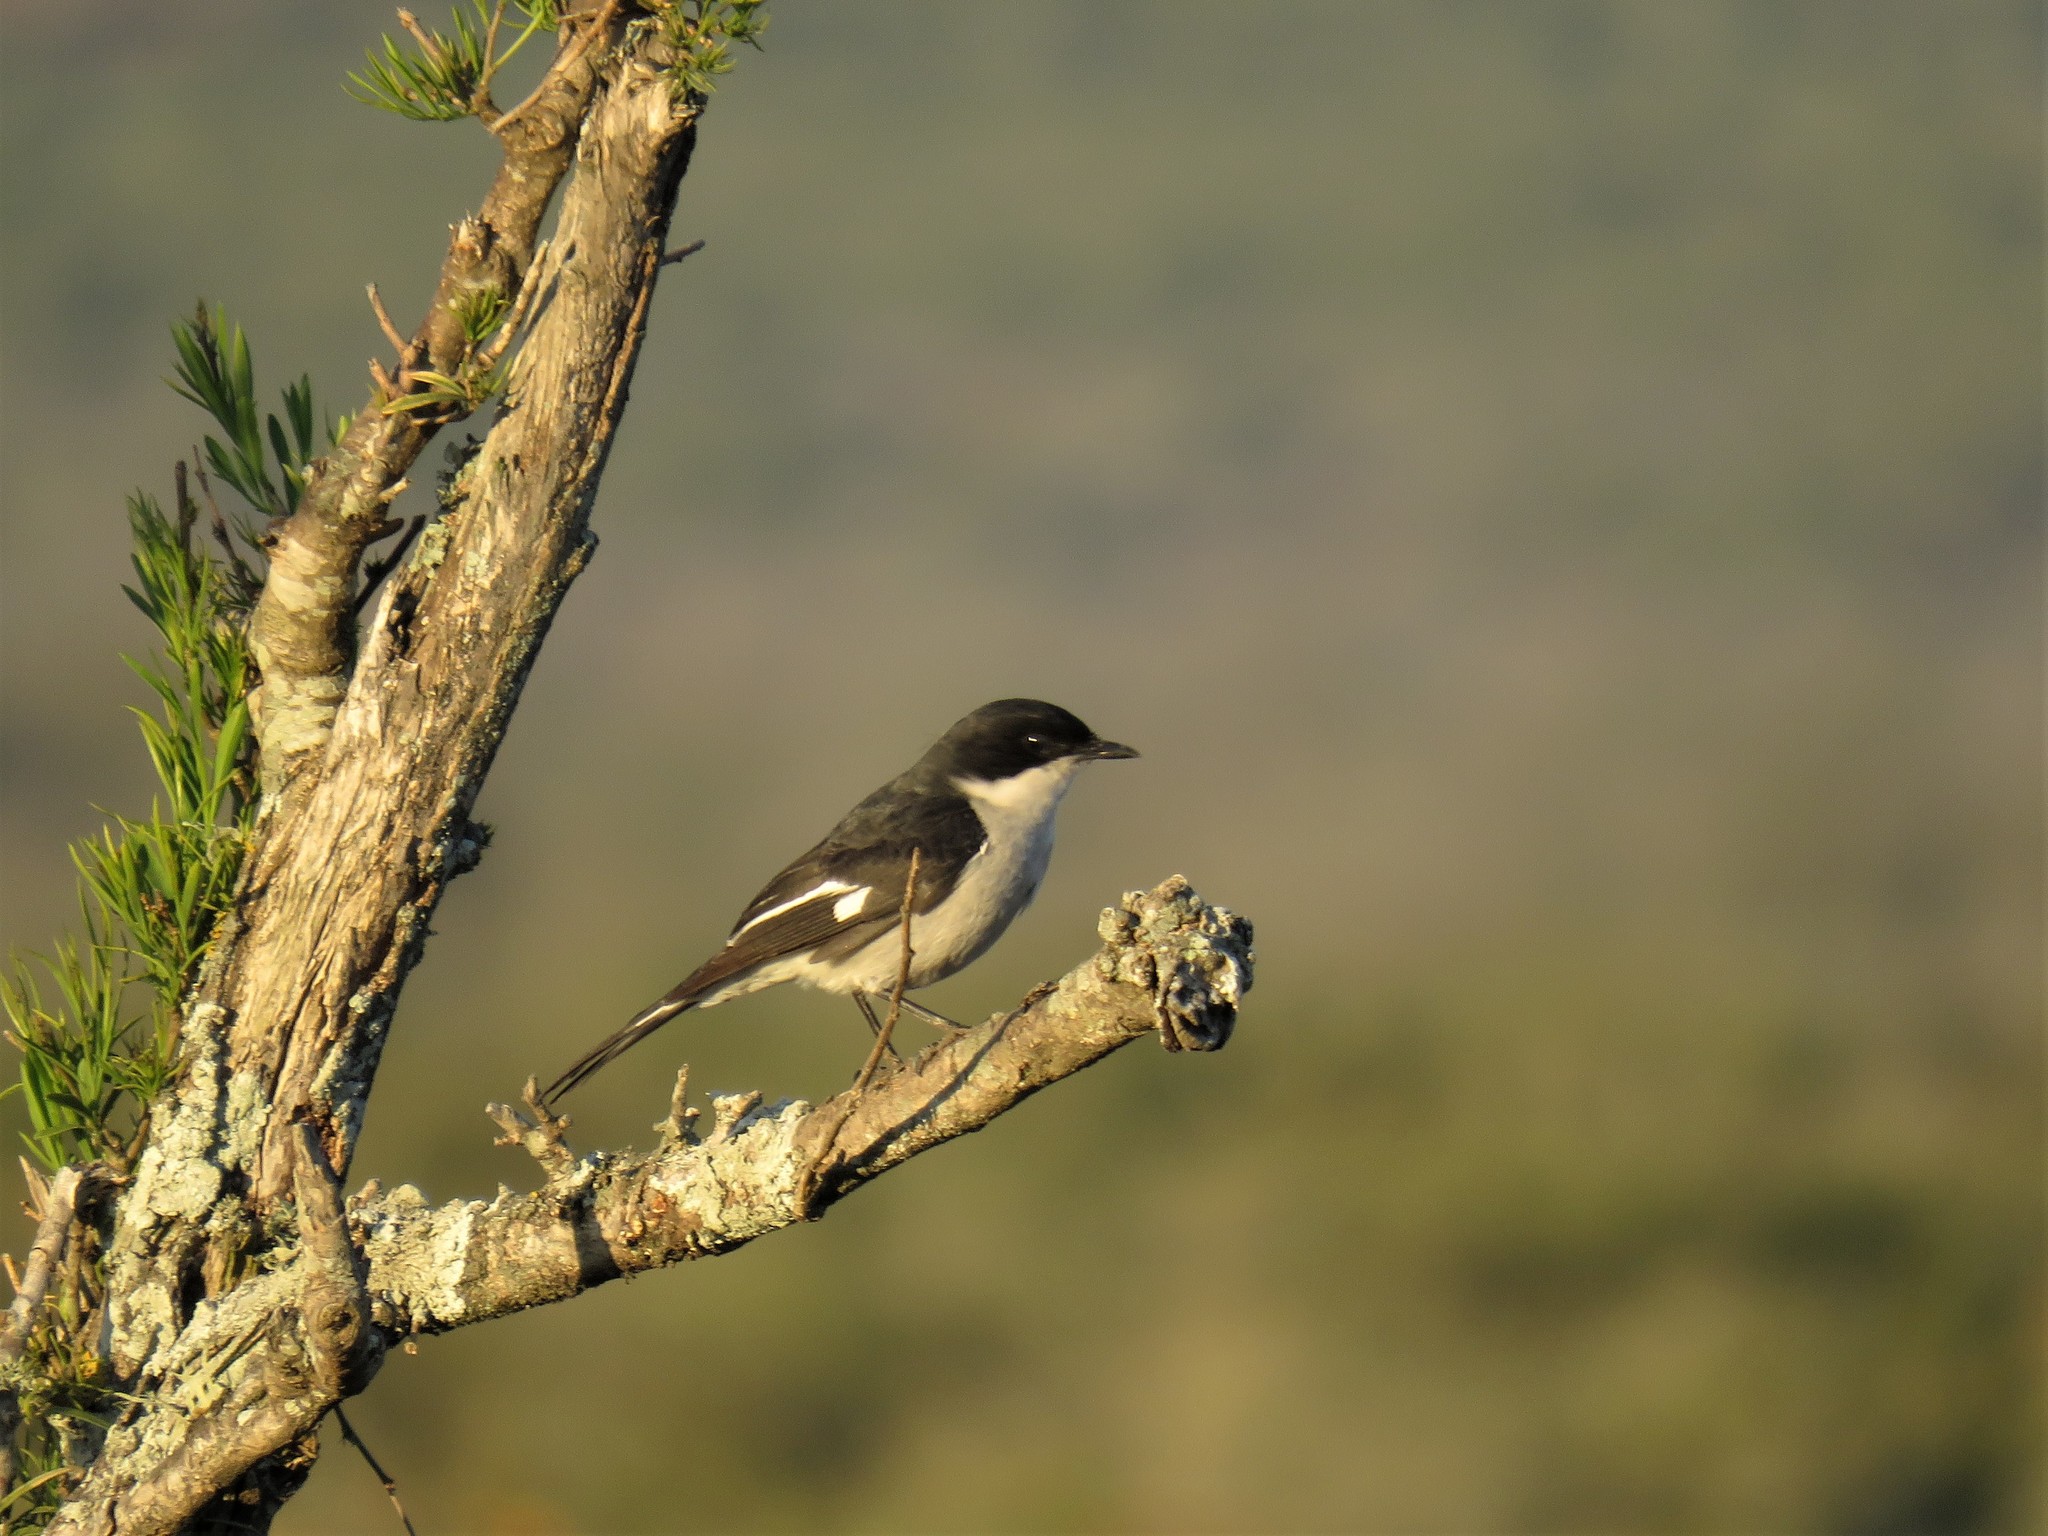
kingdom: Animalia
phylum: Chordata
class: Aves
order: Passeriformes
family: Muscicapidae
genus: Sigelus
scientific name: Sigelus silens
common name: Fiscal flycatcher
